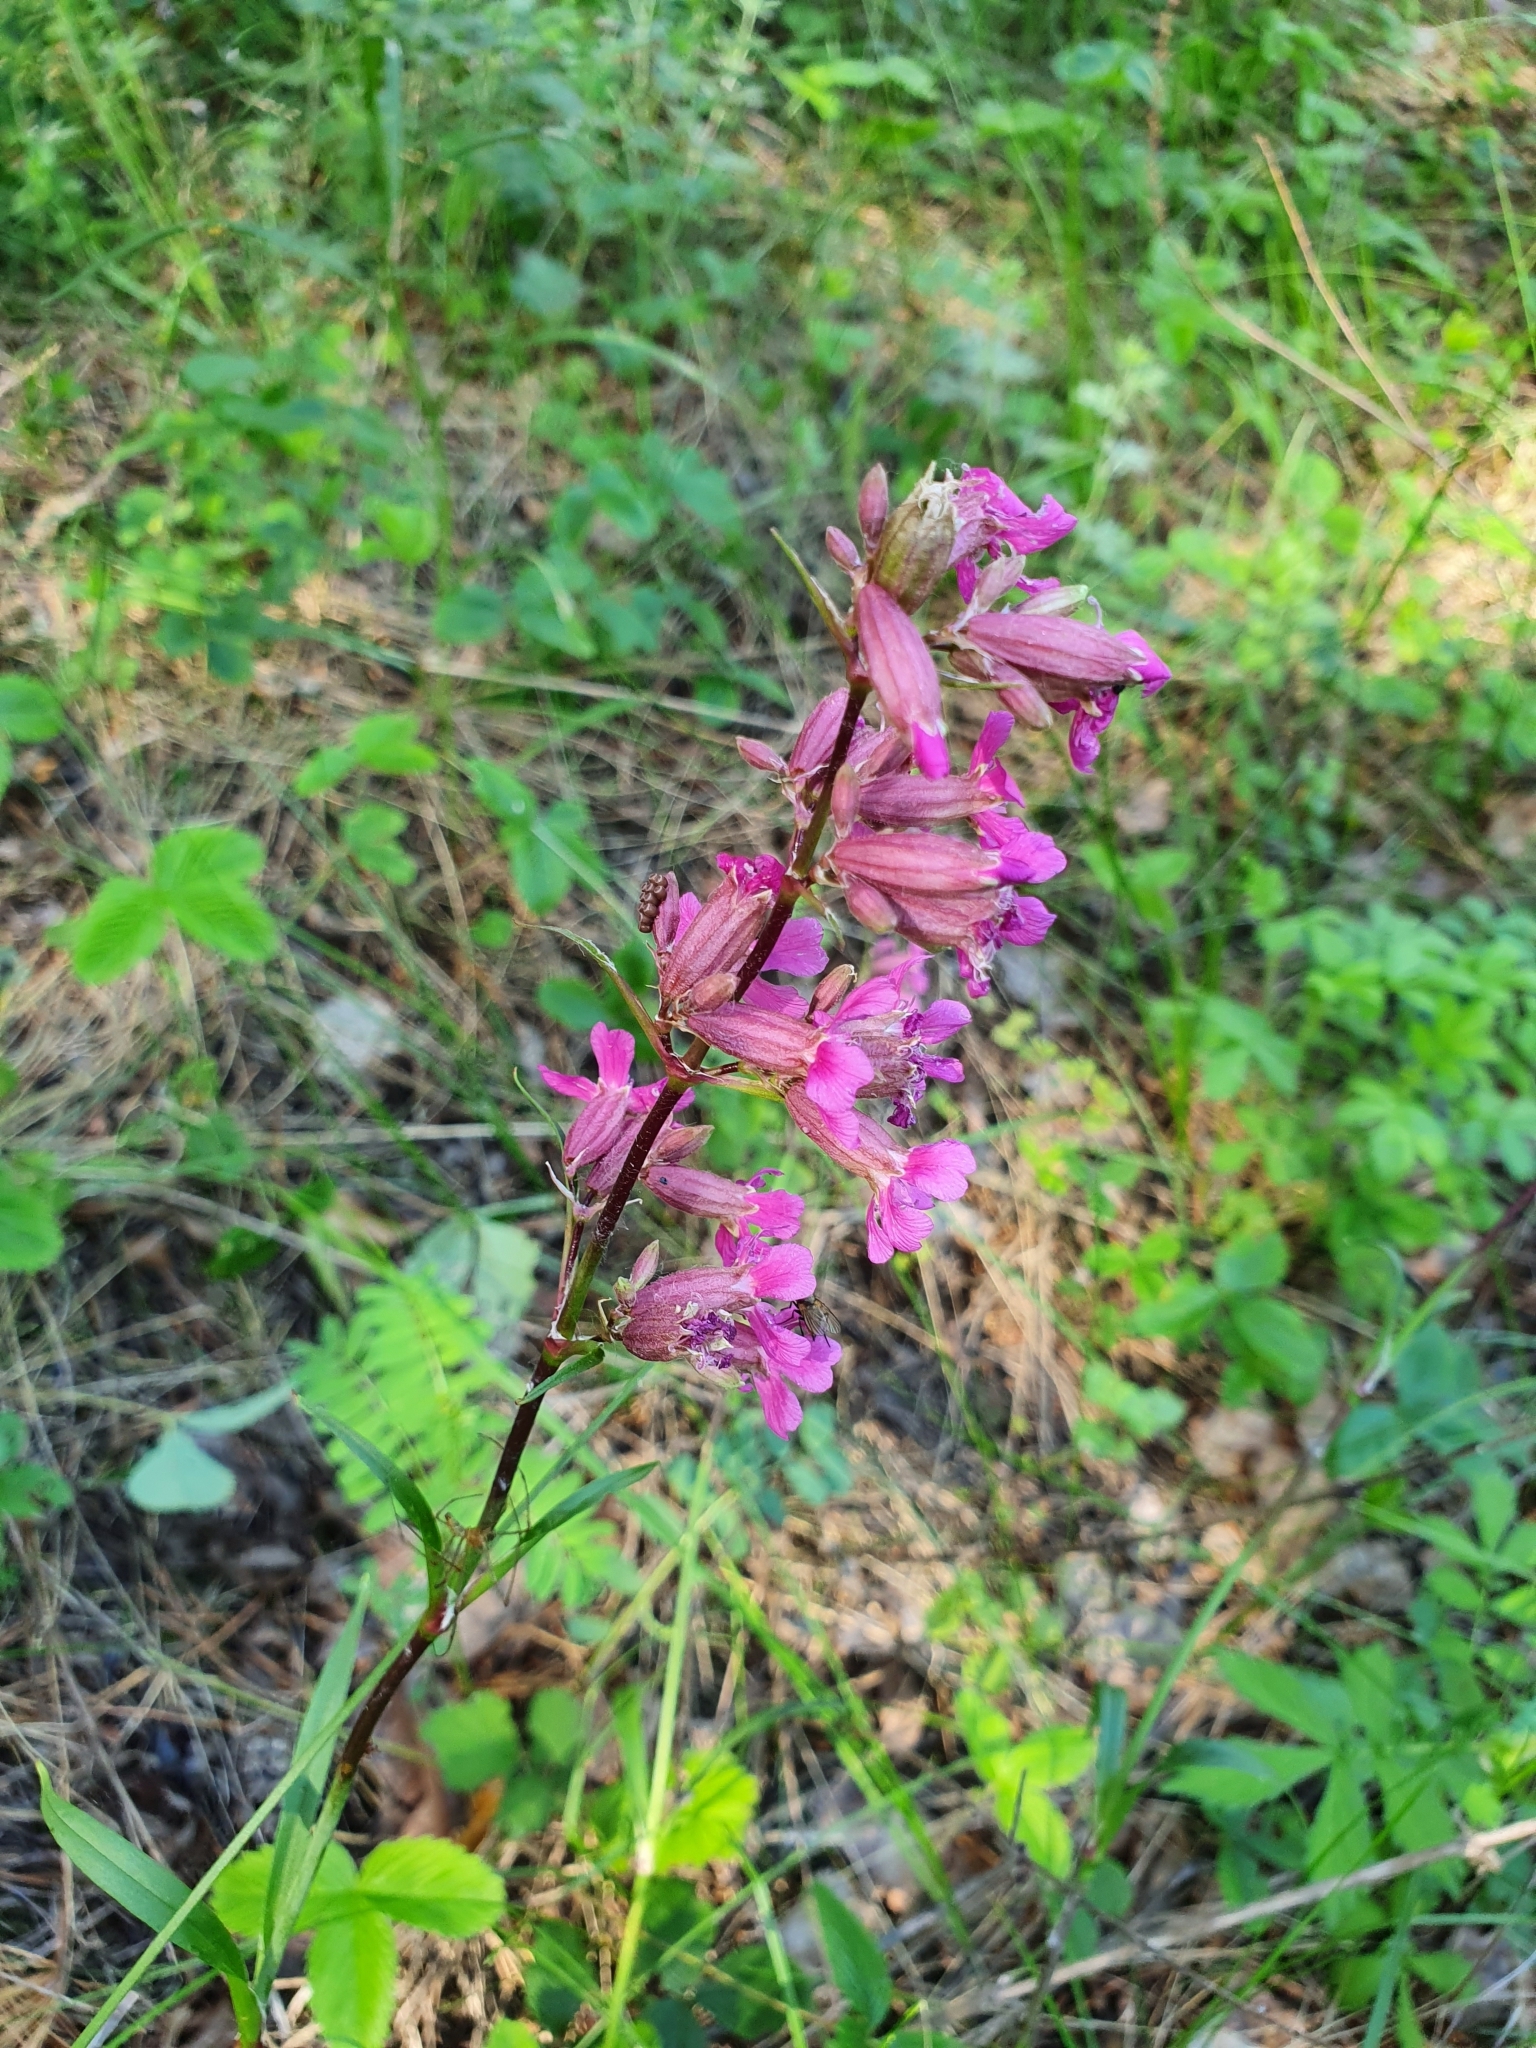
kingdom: Plantae
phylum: Tracheophyta
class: Magnoliopsida
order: Caryophyllales
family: Caryophyllaceae
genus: Viscaria
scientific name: Viscaria vulgaris
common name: Clammy campion
